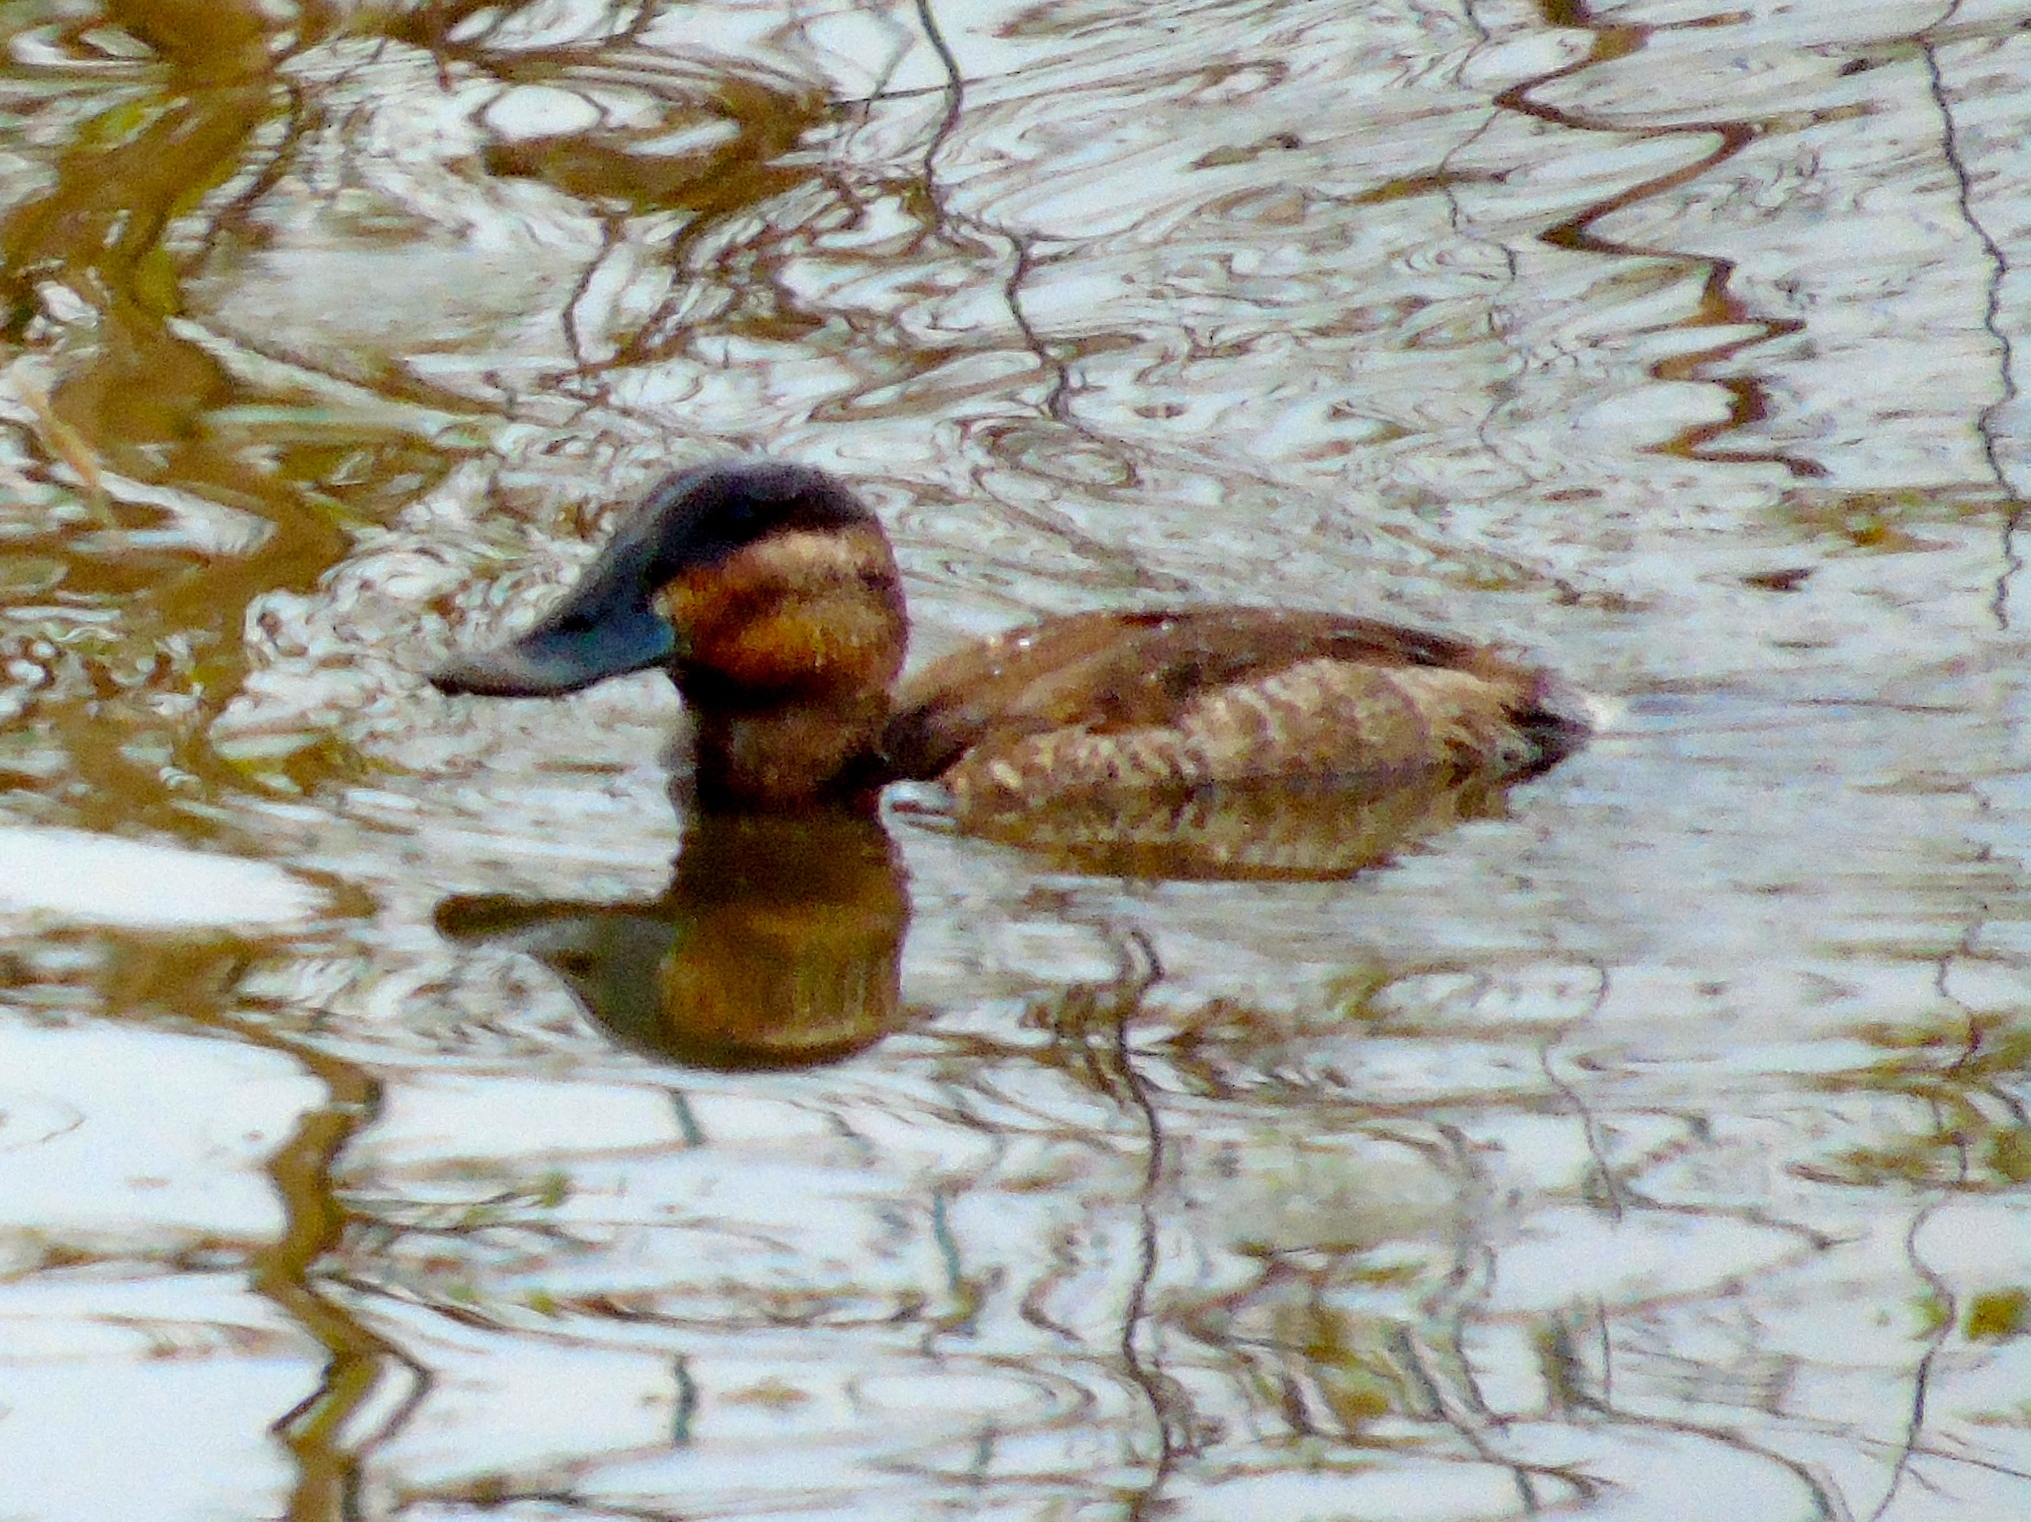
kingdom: Animalia
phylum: Chordata
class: Aves
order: Anseriformes
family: Anatidae
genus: Oxyura
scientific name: Oxyura jamaicensis
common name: Ruddy duck
